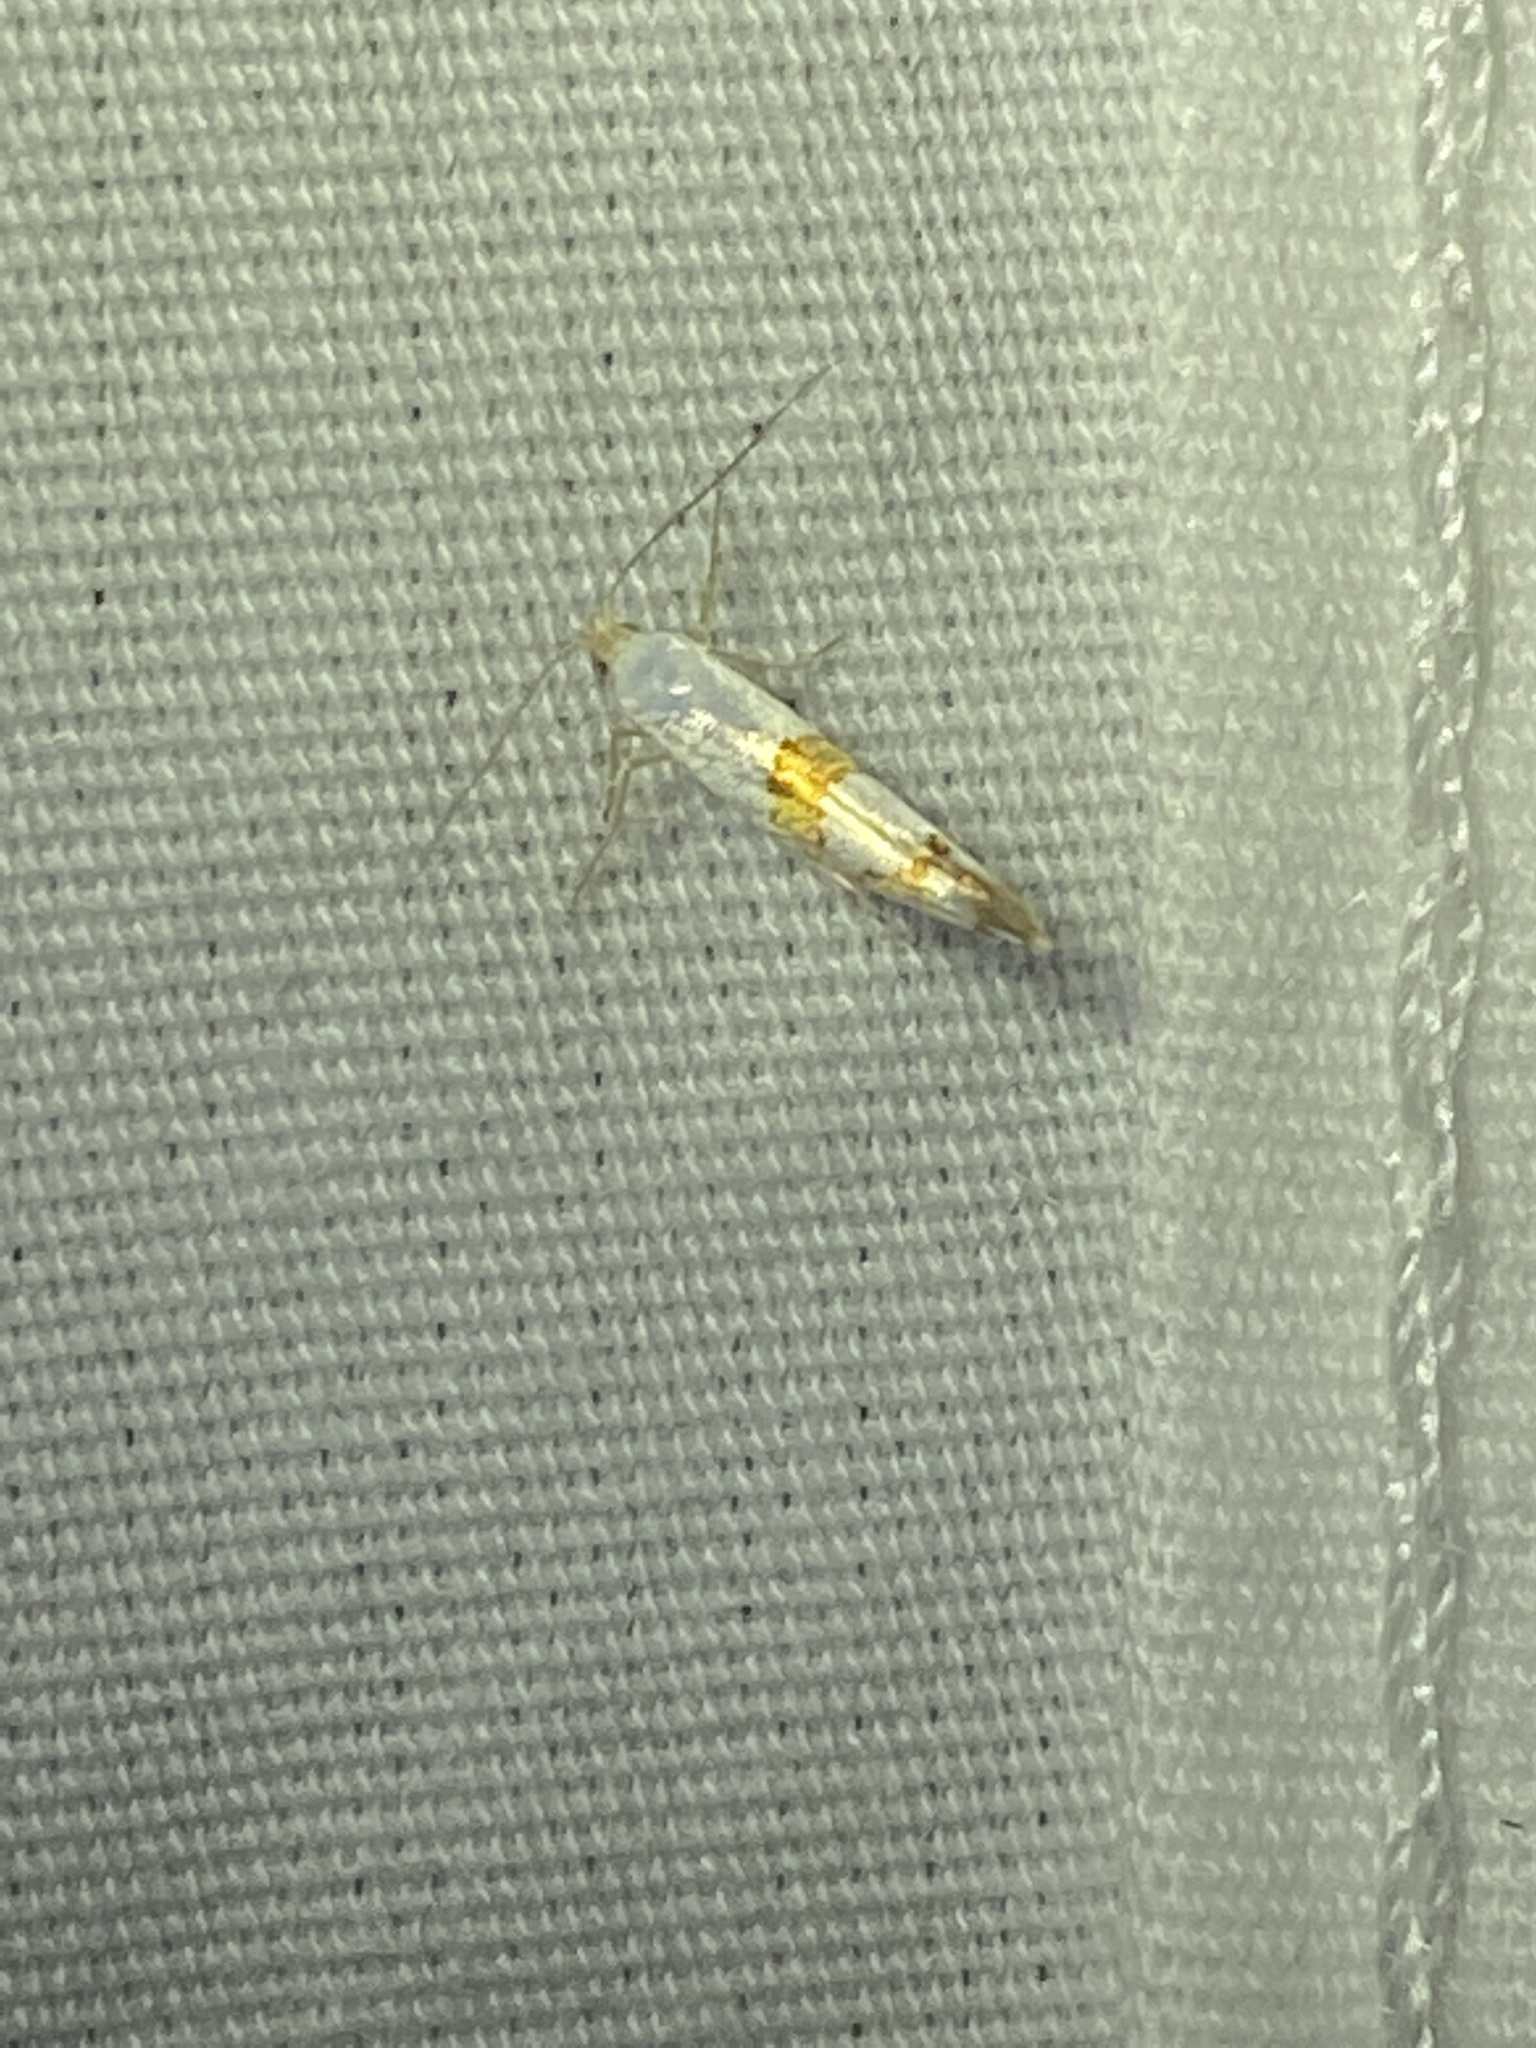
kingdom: Animalia
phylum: Arthropoda
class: Insecta
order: Lepidoptera
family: Argyresthiidae
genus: Argyresthia
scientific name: Argyresthia oreasella
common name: Cherry shoot borer moth
